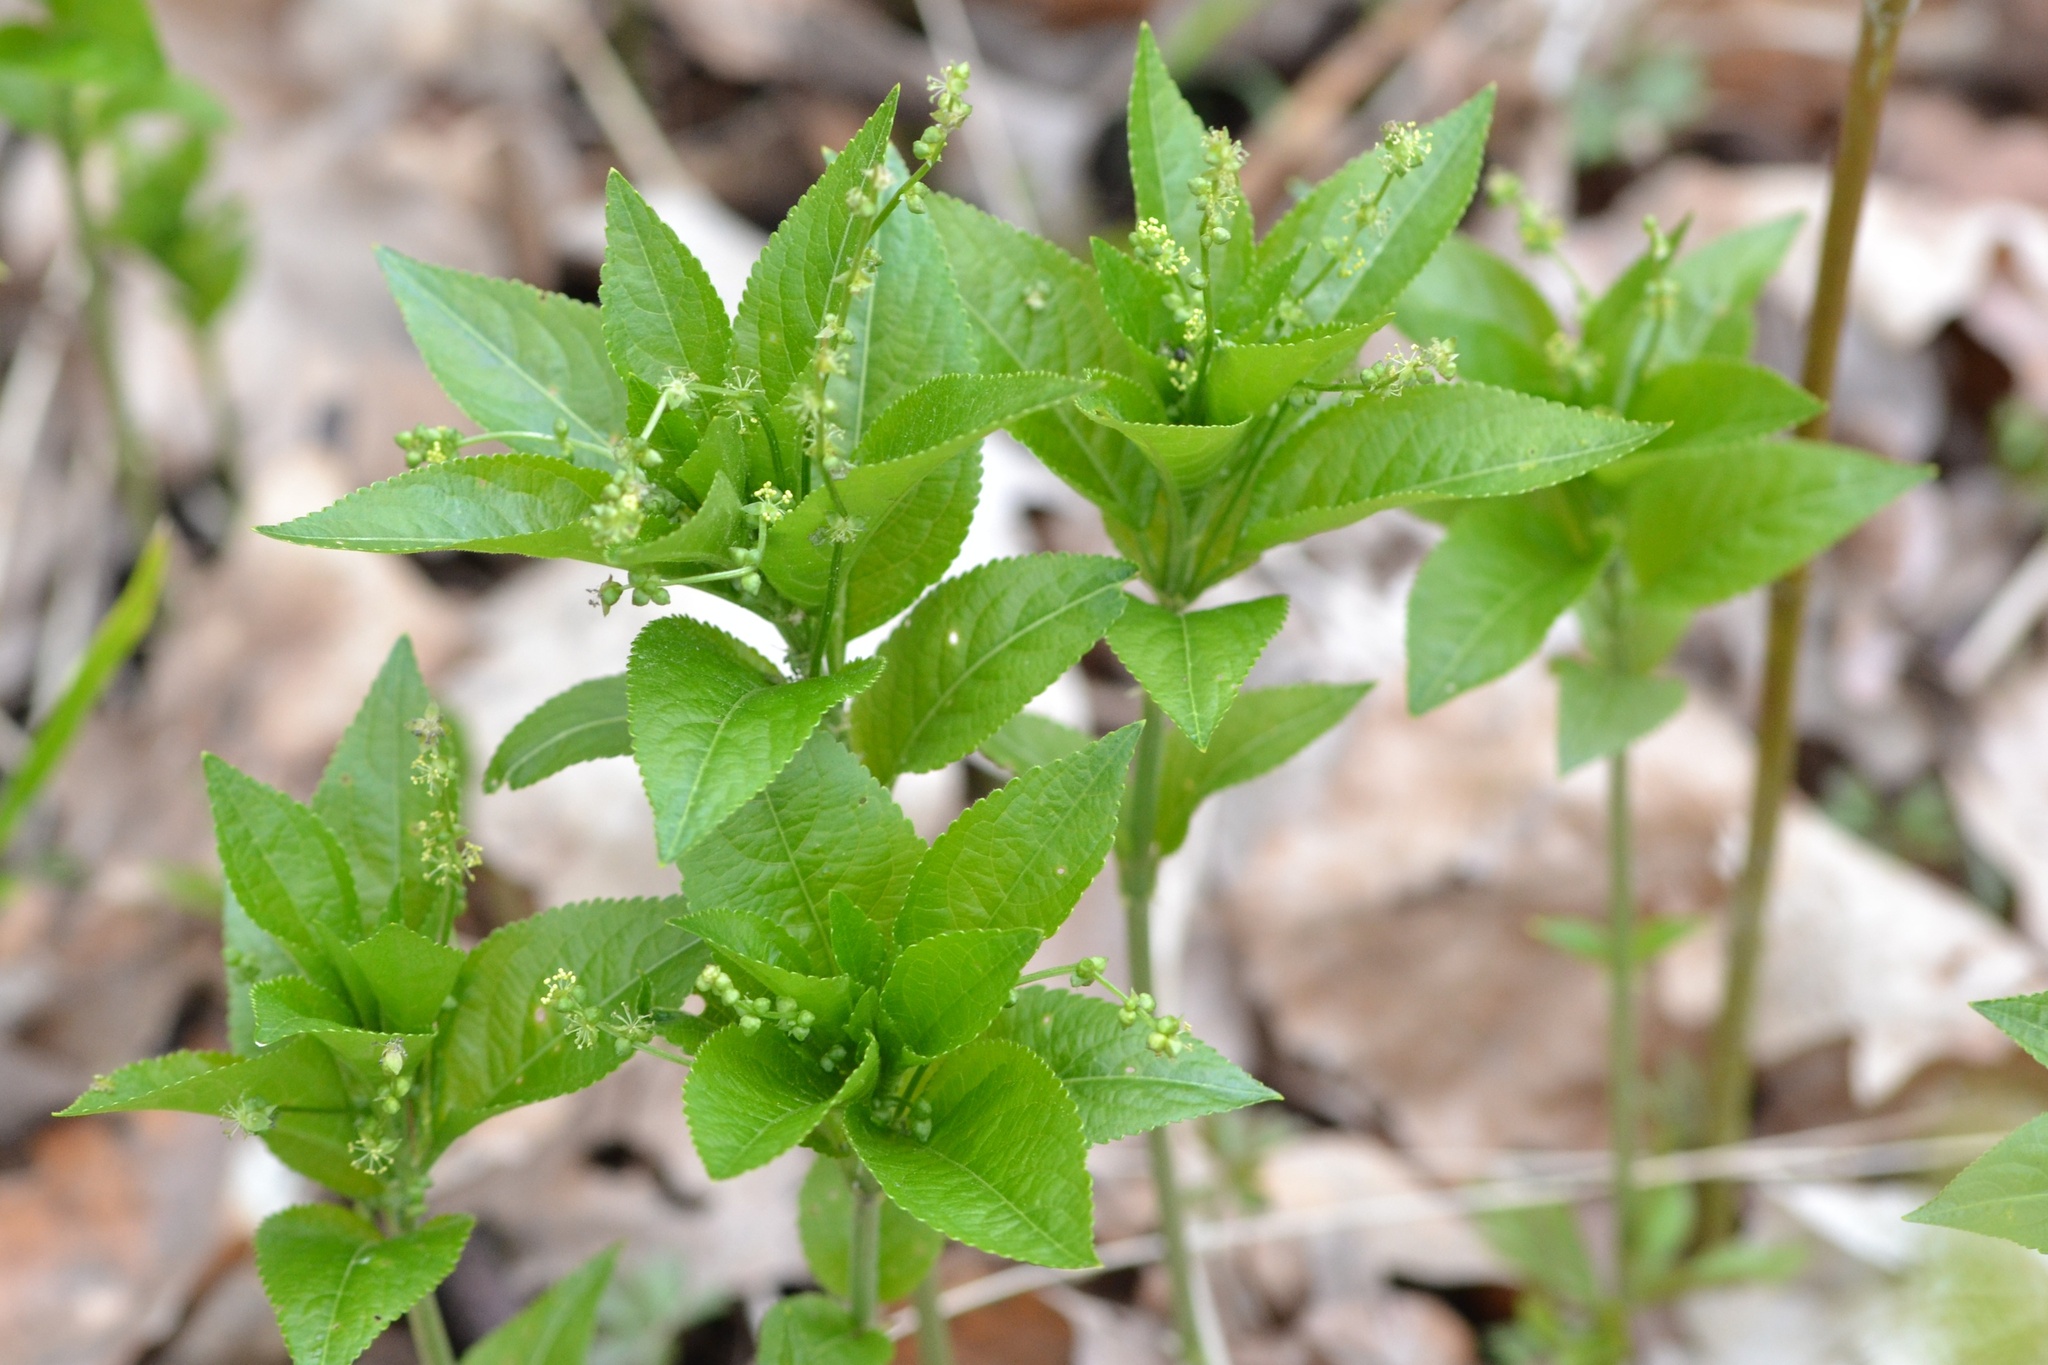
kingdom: Plantae
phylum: Tracheophyta
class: Magnoliopsida
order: Malpighiales
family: Euphorbiaceae
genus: Mercurialis
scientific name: Mercurialis perennis
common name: Dog mercury
